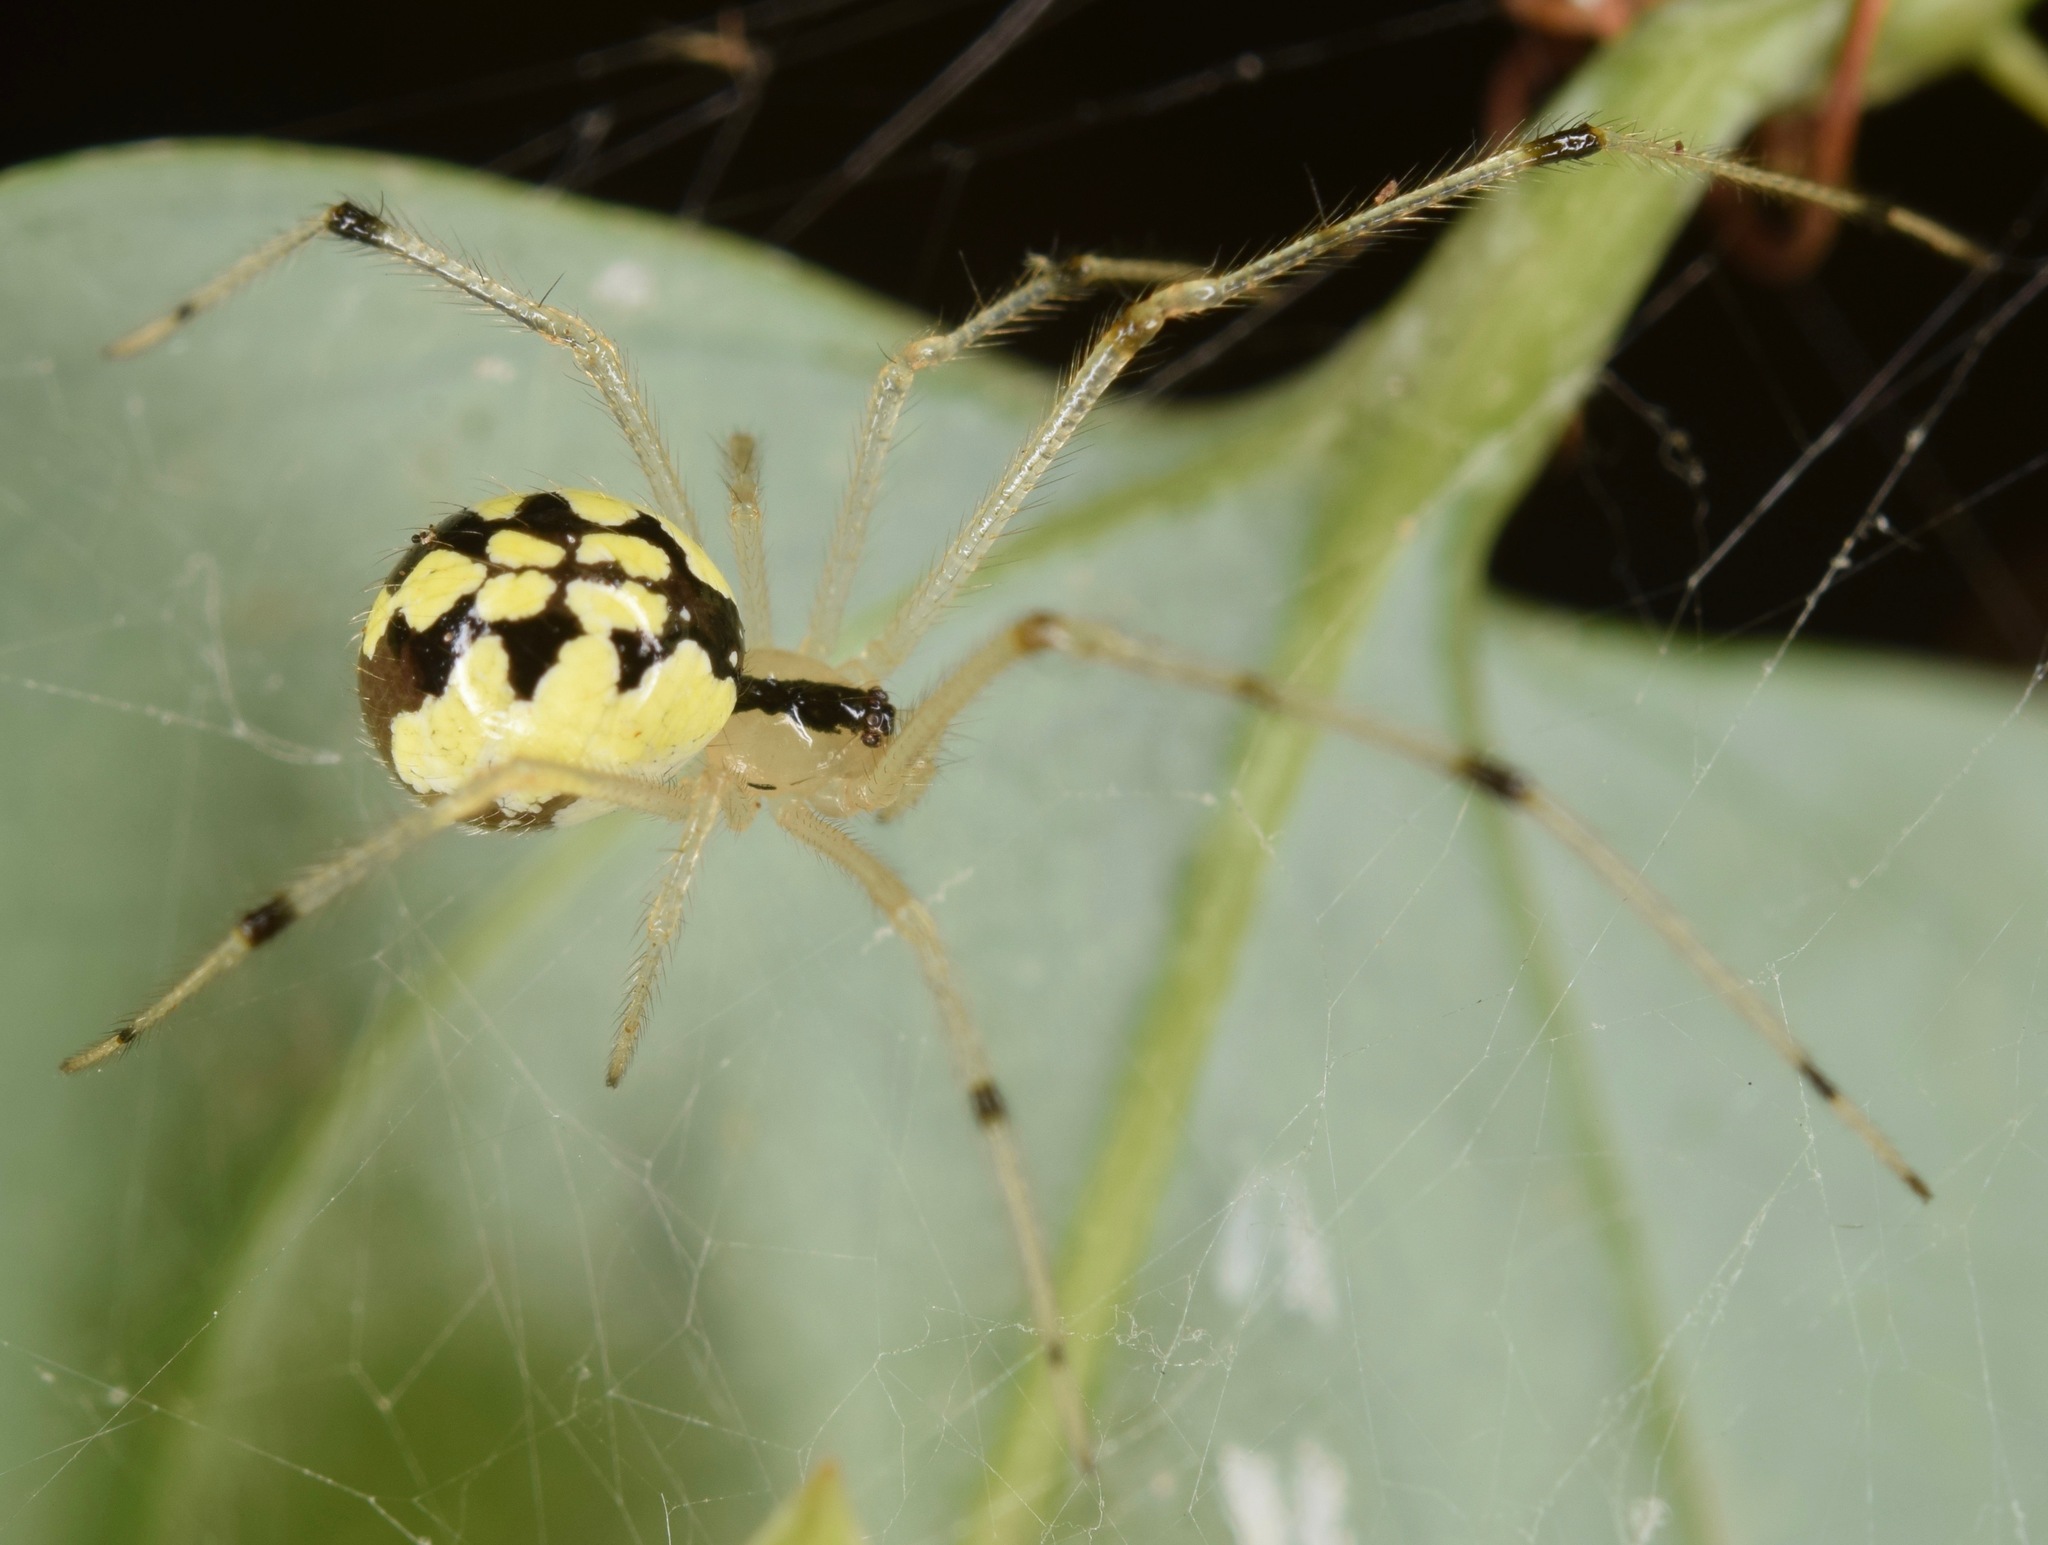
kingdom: Animalia
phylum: Arthropoda
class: Arachnida
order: Araneae
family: Theridiidae
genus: Phylloneta
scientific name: Phylloneta pictipes
